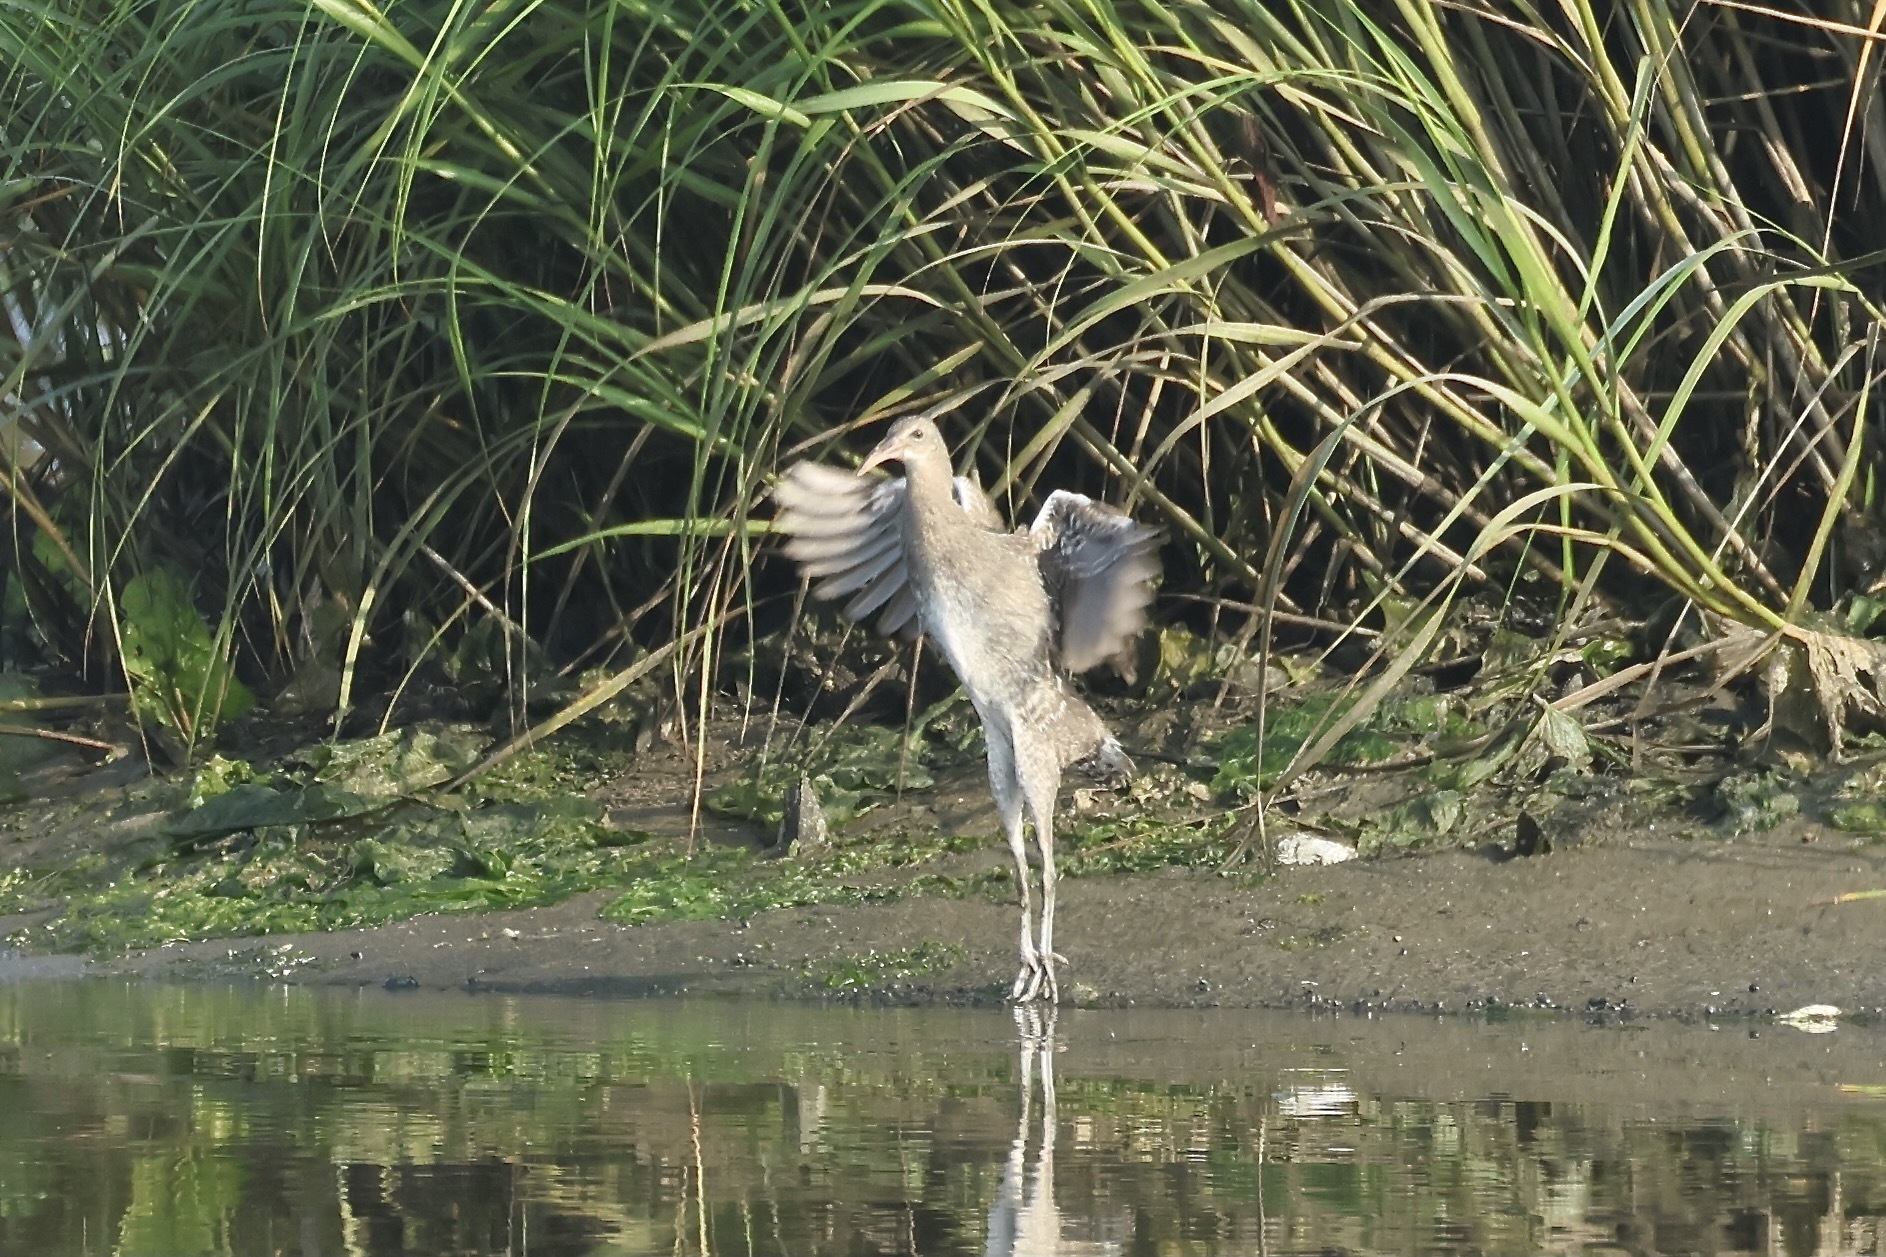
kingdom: Animalia
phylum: Chordata
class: Aves
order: Gruiformes
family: Rallidae
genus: Rallus
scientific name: Rallus crepitans
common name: Clapper rail
